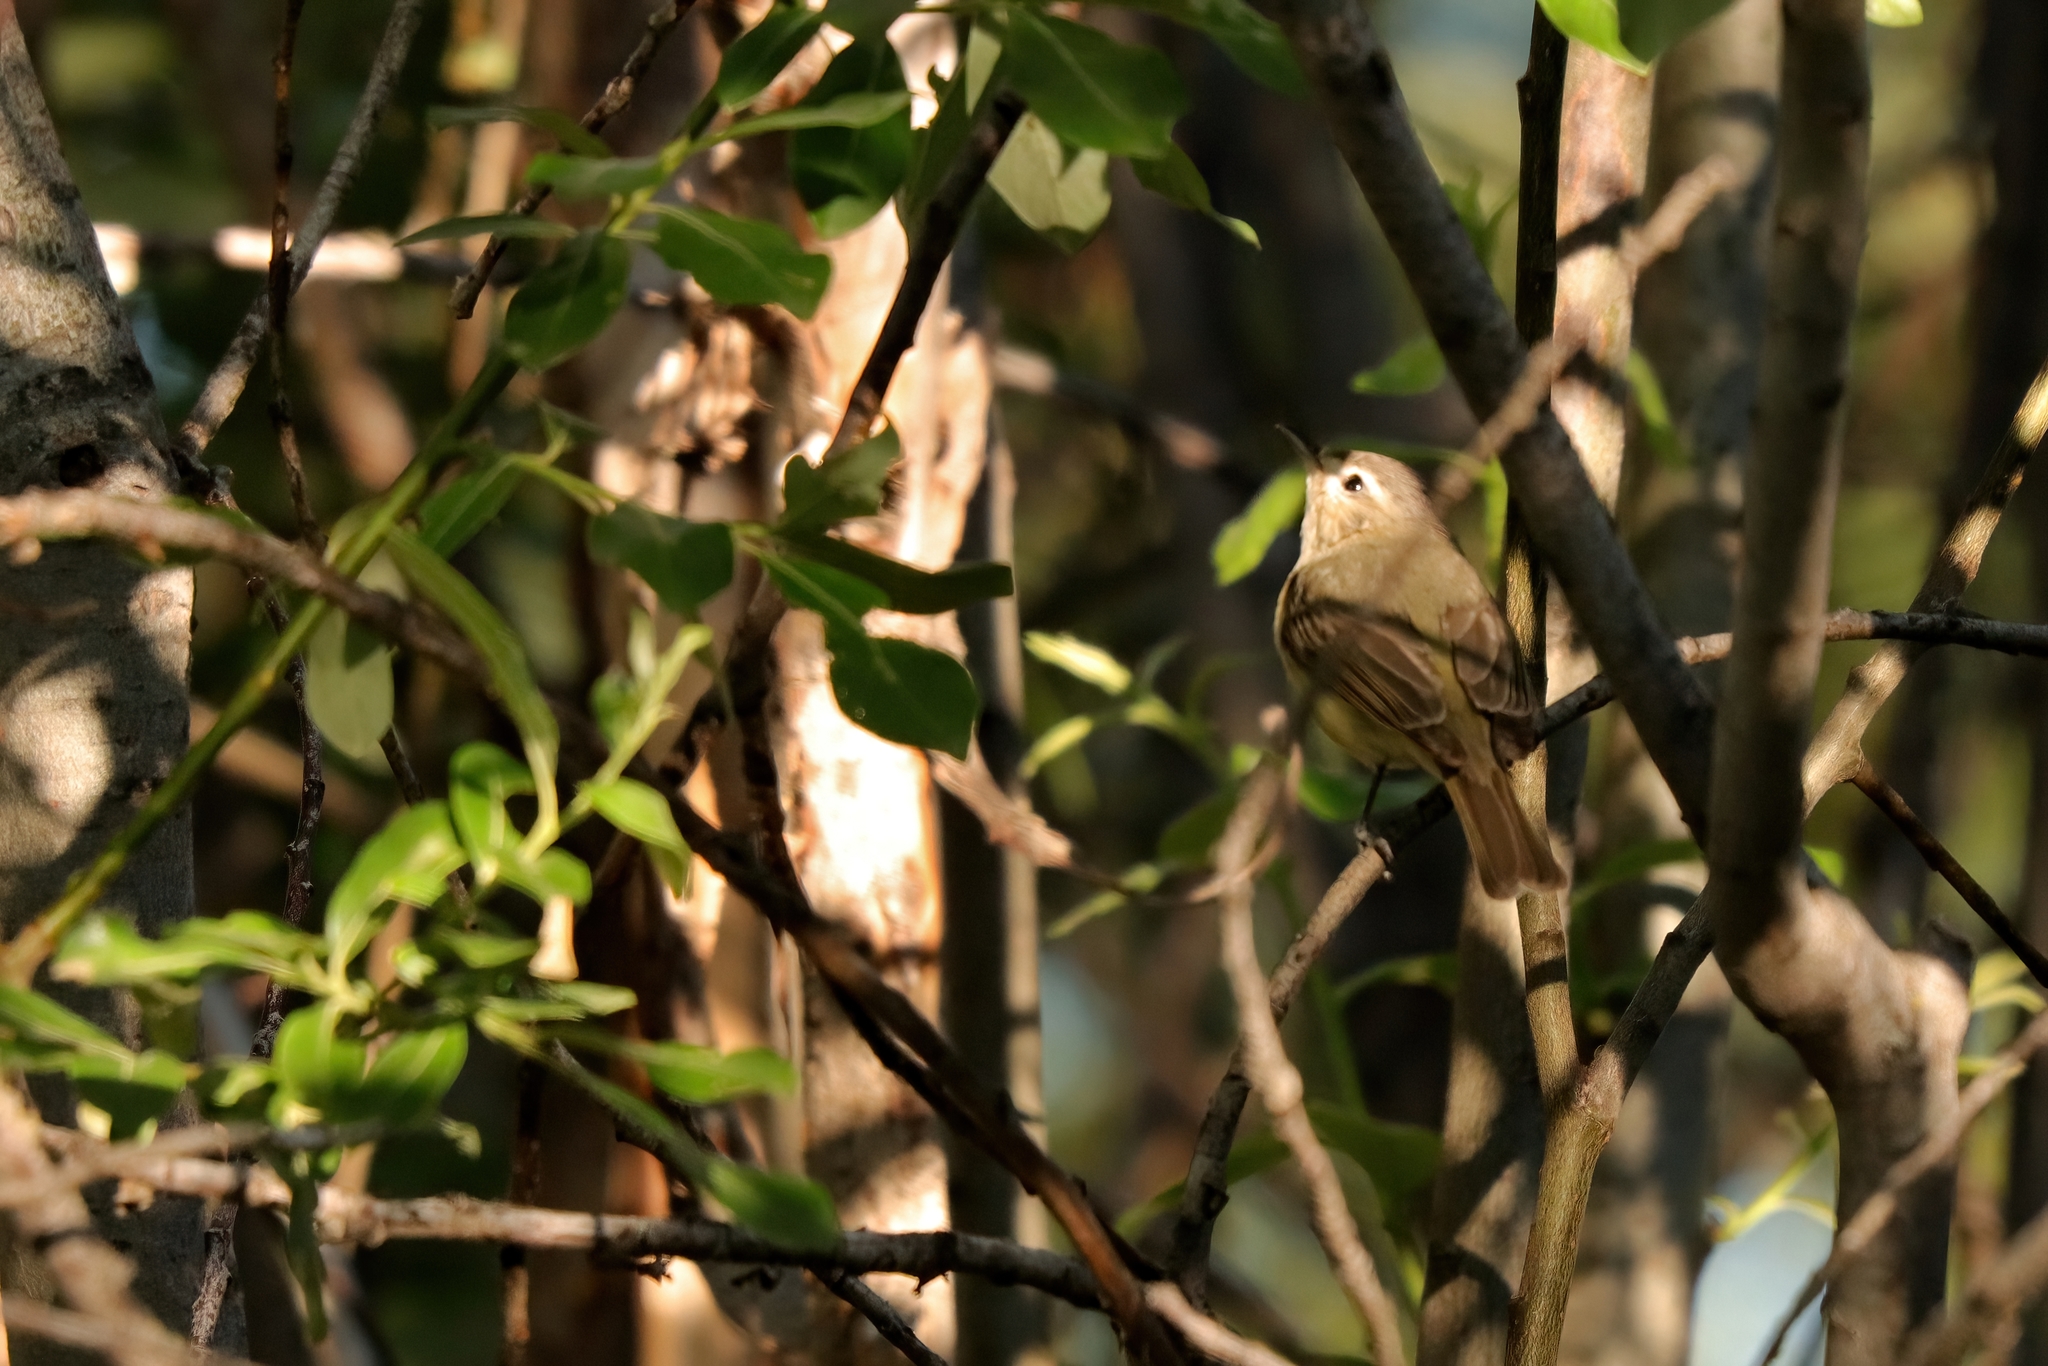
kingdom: Animalia
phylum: Chordata
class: Aves
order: Passeriformes
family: Vireonidae
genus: Vireo
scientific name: Vireo gilvus
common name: Warbling vireo
